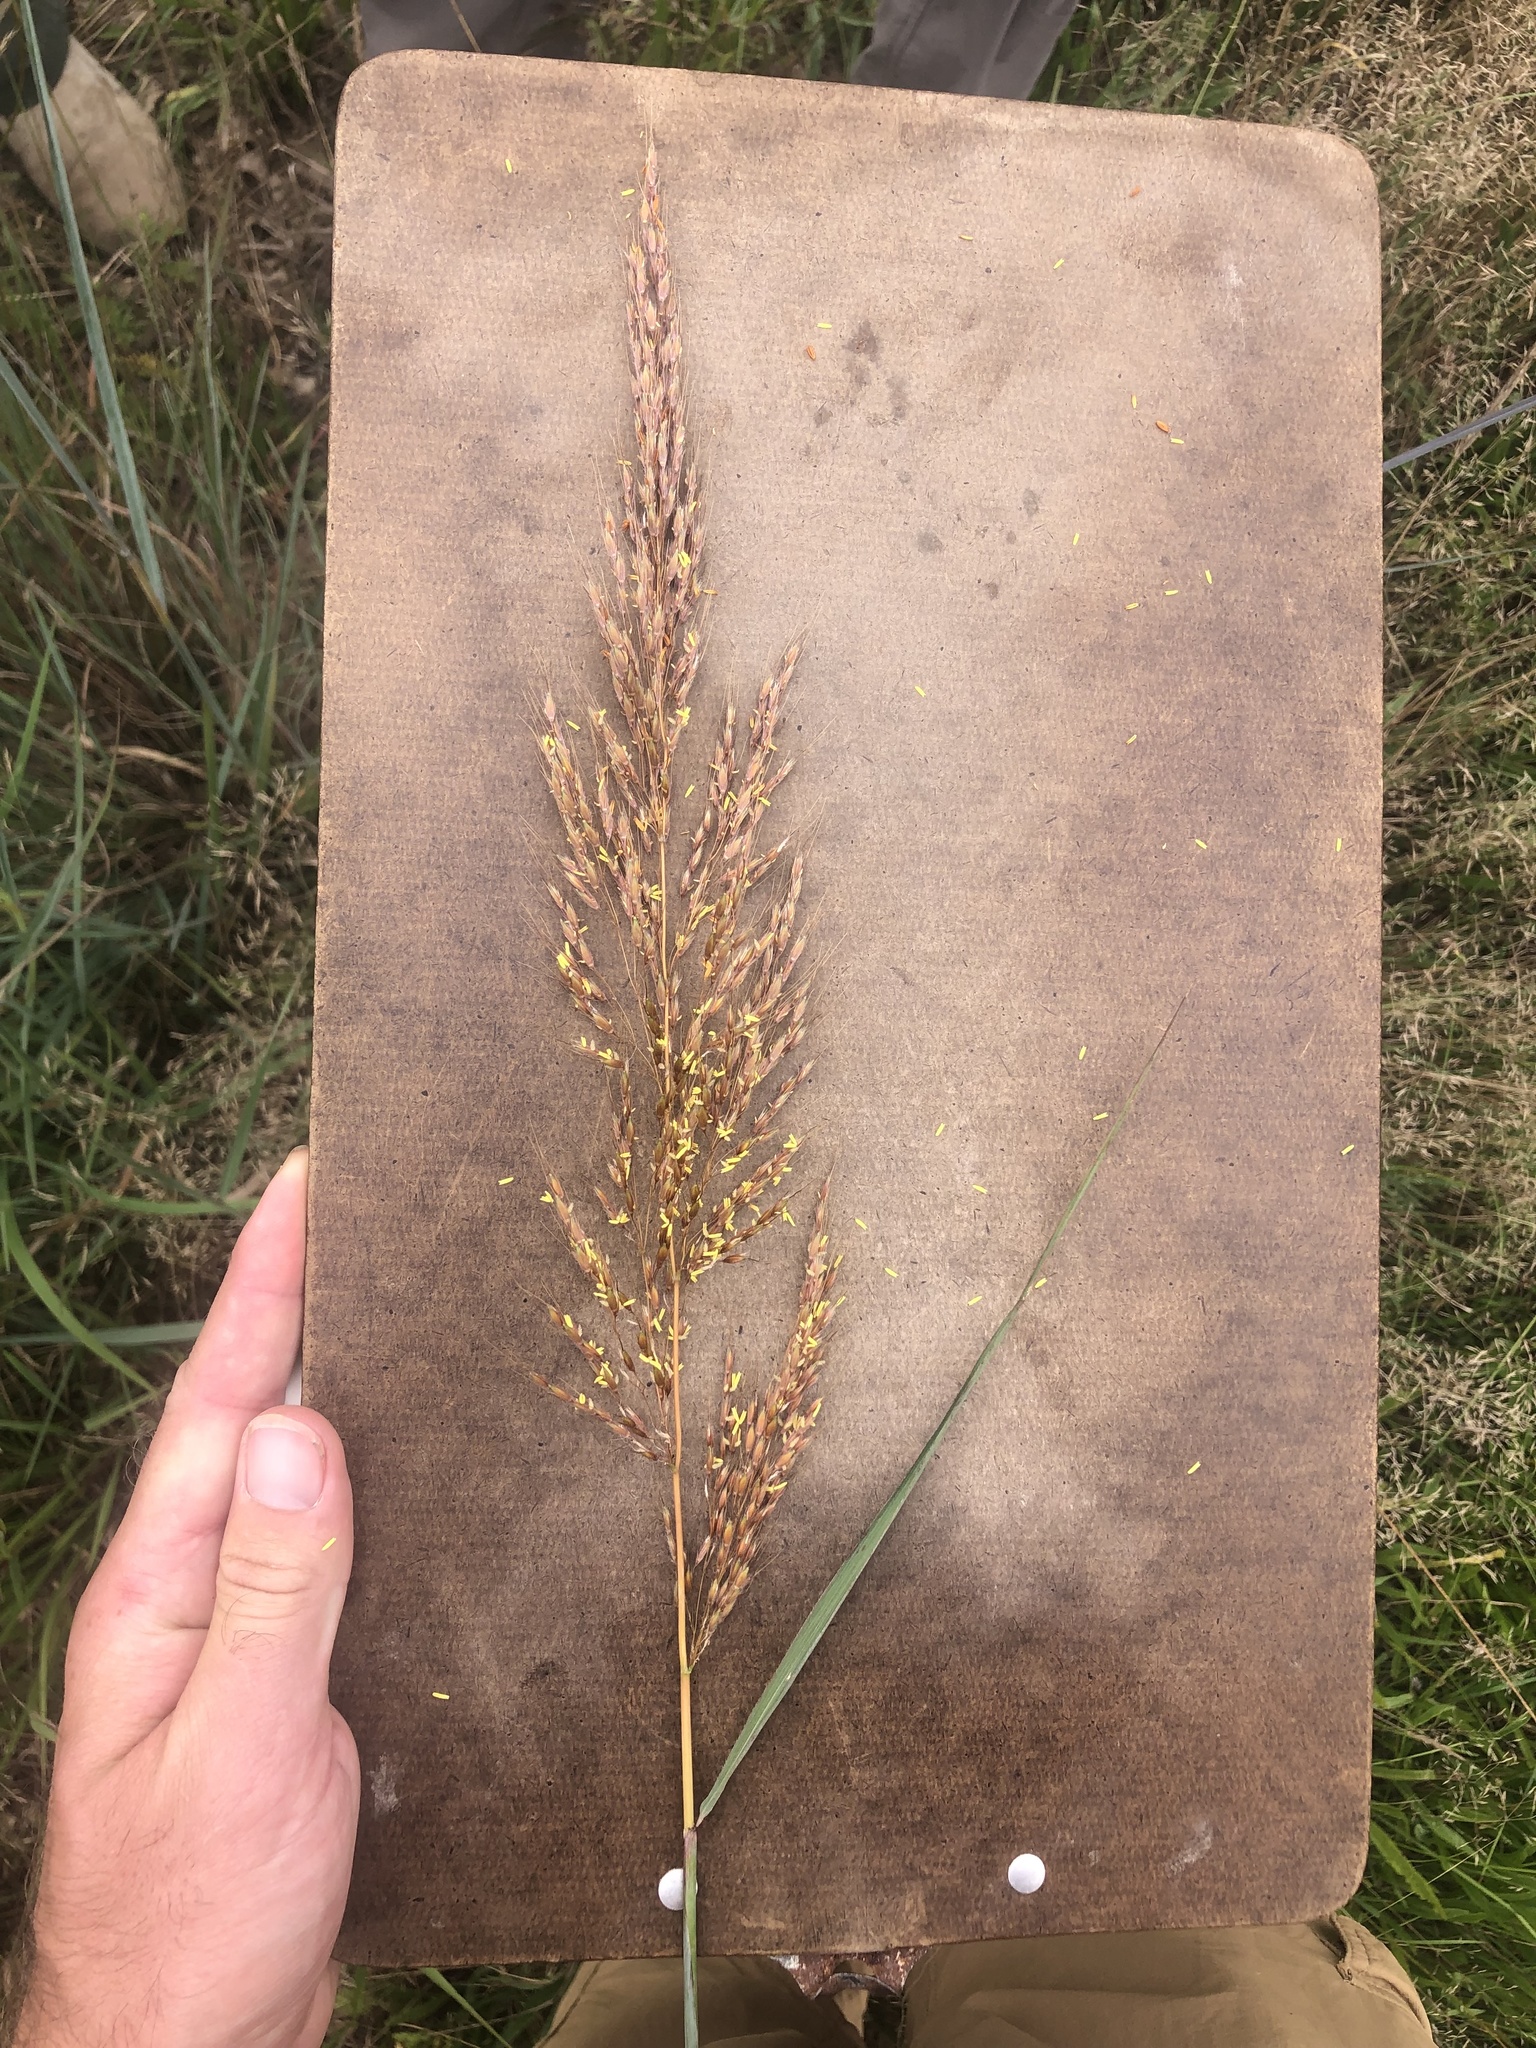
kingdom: Plantae
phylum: Tracheophyta
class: Liliopsida
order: Poales
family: Poaceae
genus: Sorghastrum
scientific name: Sorghastrum nutans
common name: Indian grass
